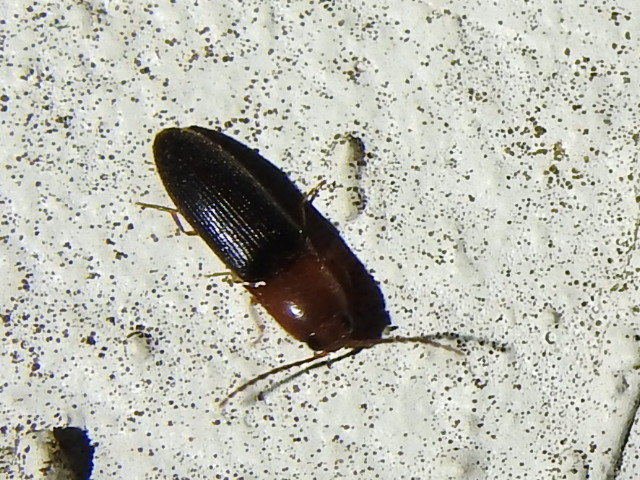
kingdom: Animalia
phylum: Arthropoda
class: Insecta
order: Coleoptera
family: Elateridae
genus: Anchastus
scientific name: Anchastus
